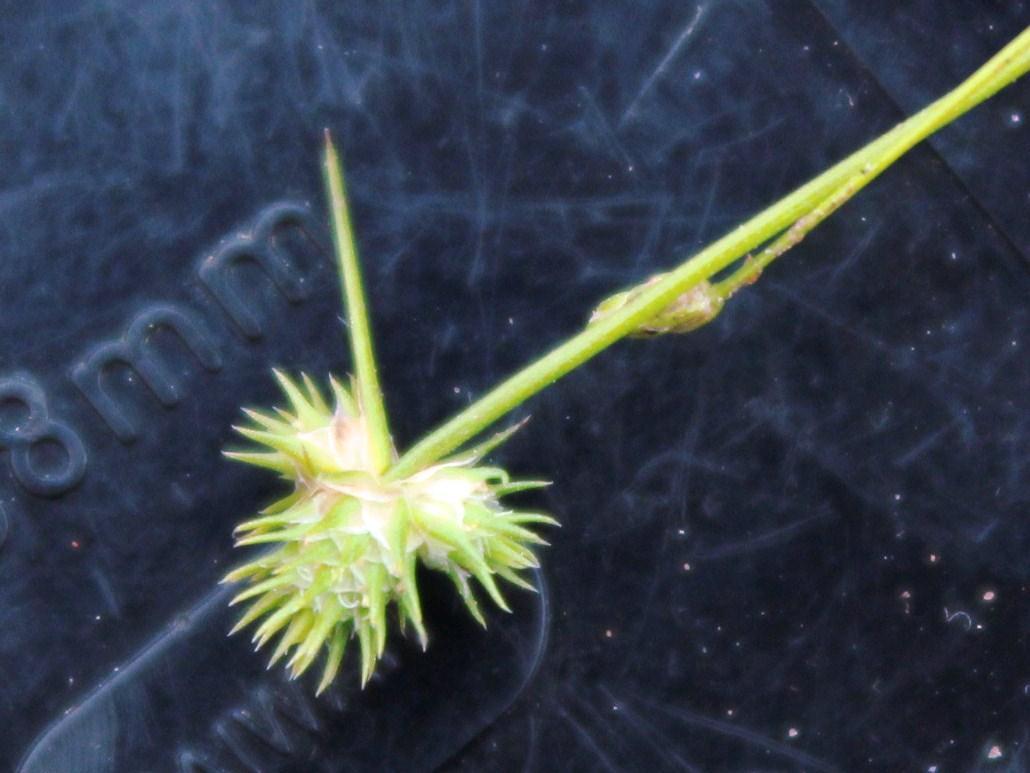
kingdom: Plantae
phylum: Tracheophyta
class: Liliopsida
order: Poales
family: Cyperaceae
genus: Isolepis
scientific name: Isolepis hystrix
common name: Bottlebrush bulrush
